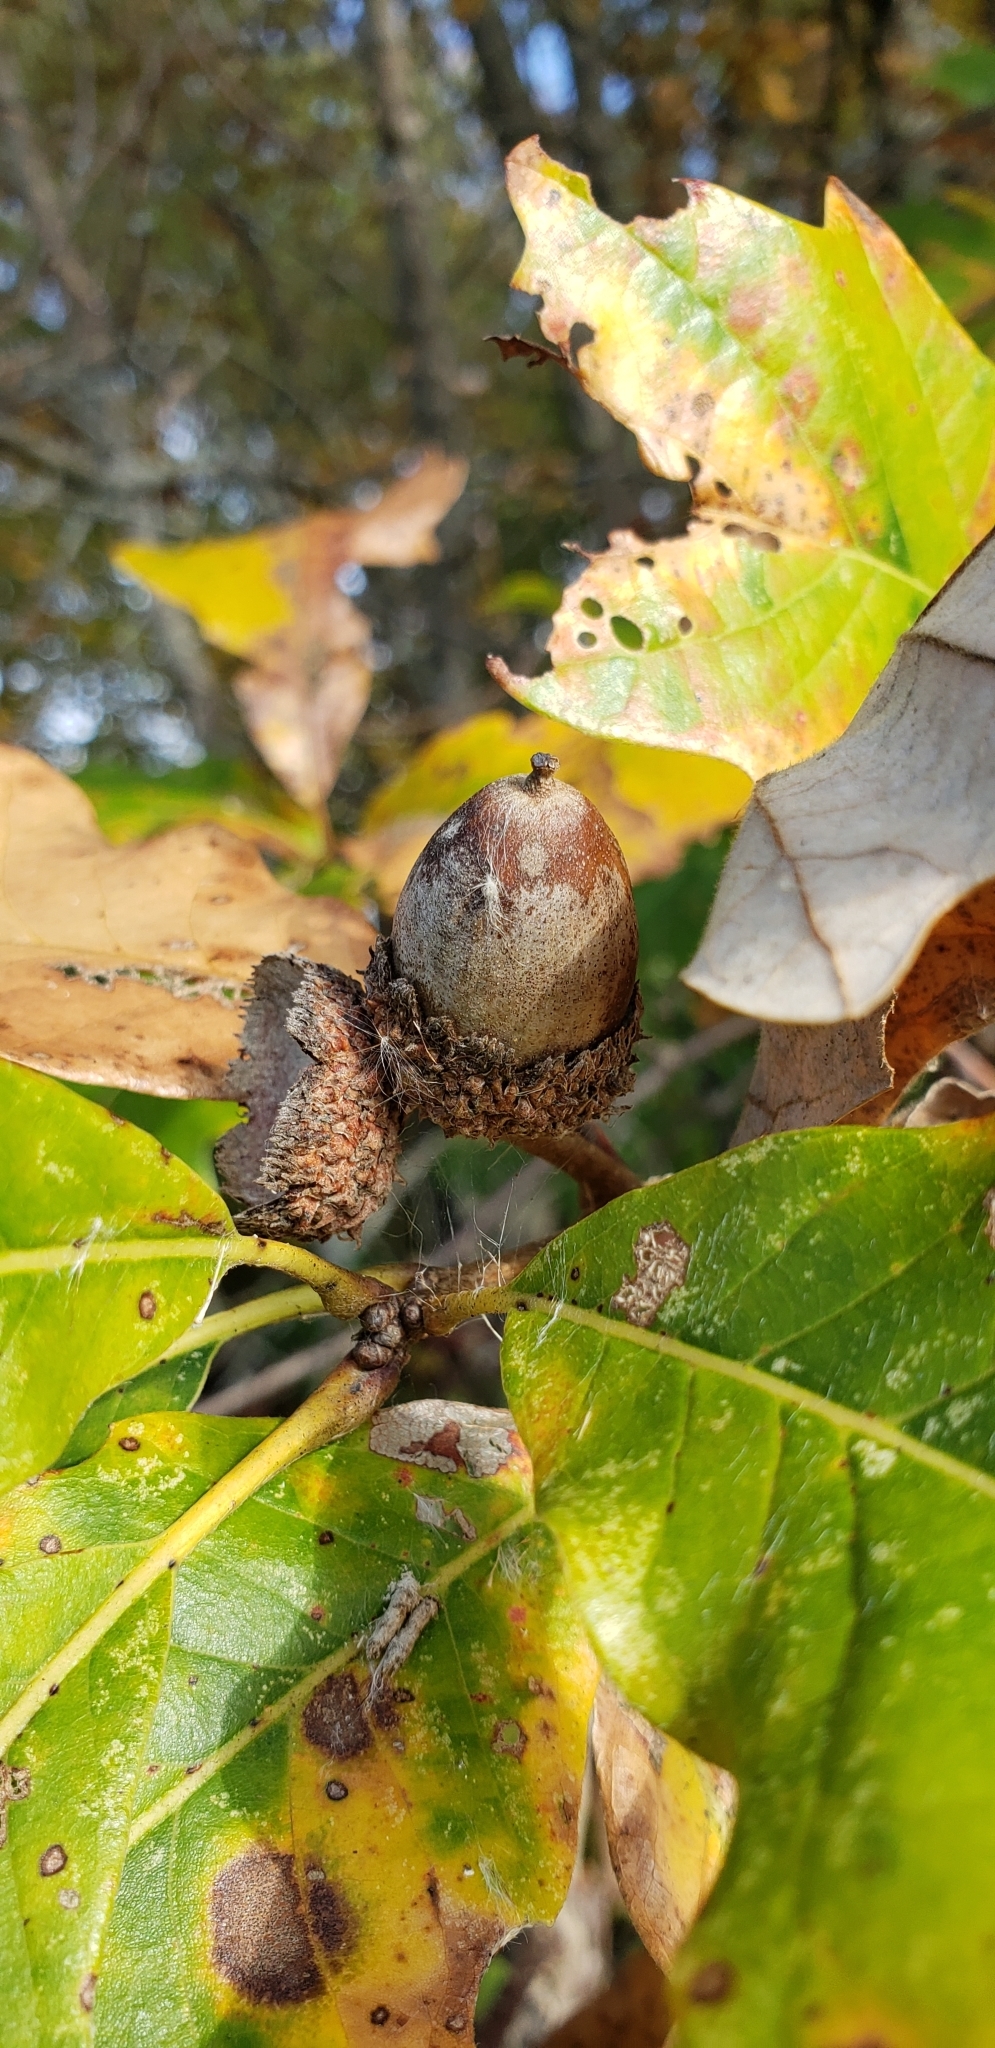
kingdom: Plantae
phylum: Tracheophyta
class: Magnoliopsida
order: Fagales
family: Fagaceae
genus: Quercus
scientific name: Quercus bicolor
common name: Swamp white oak
